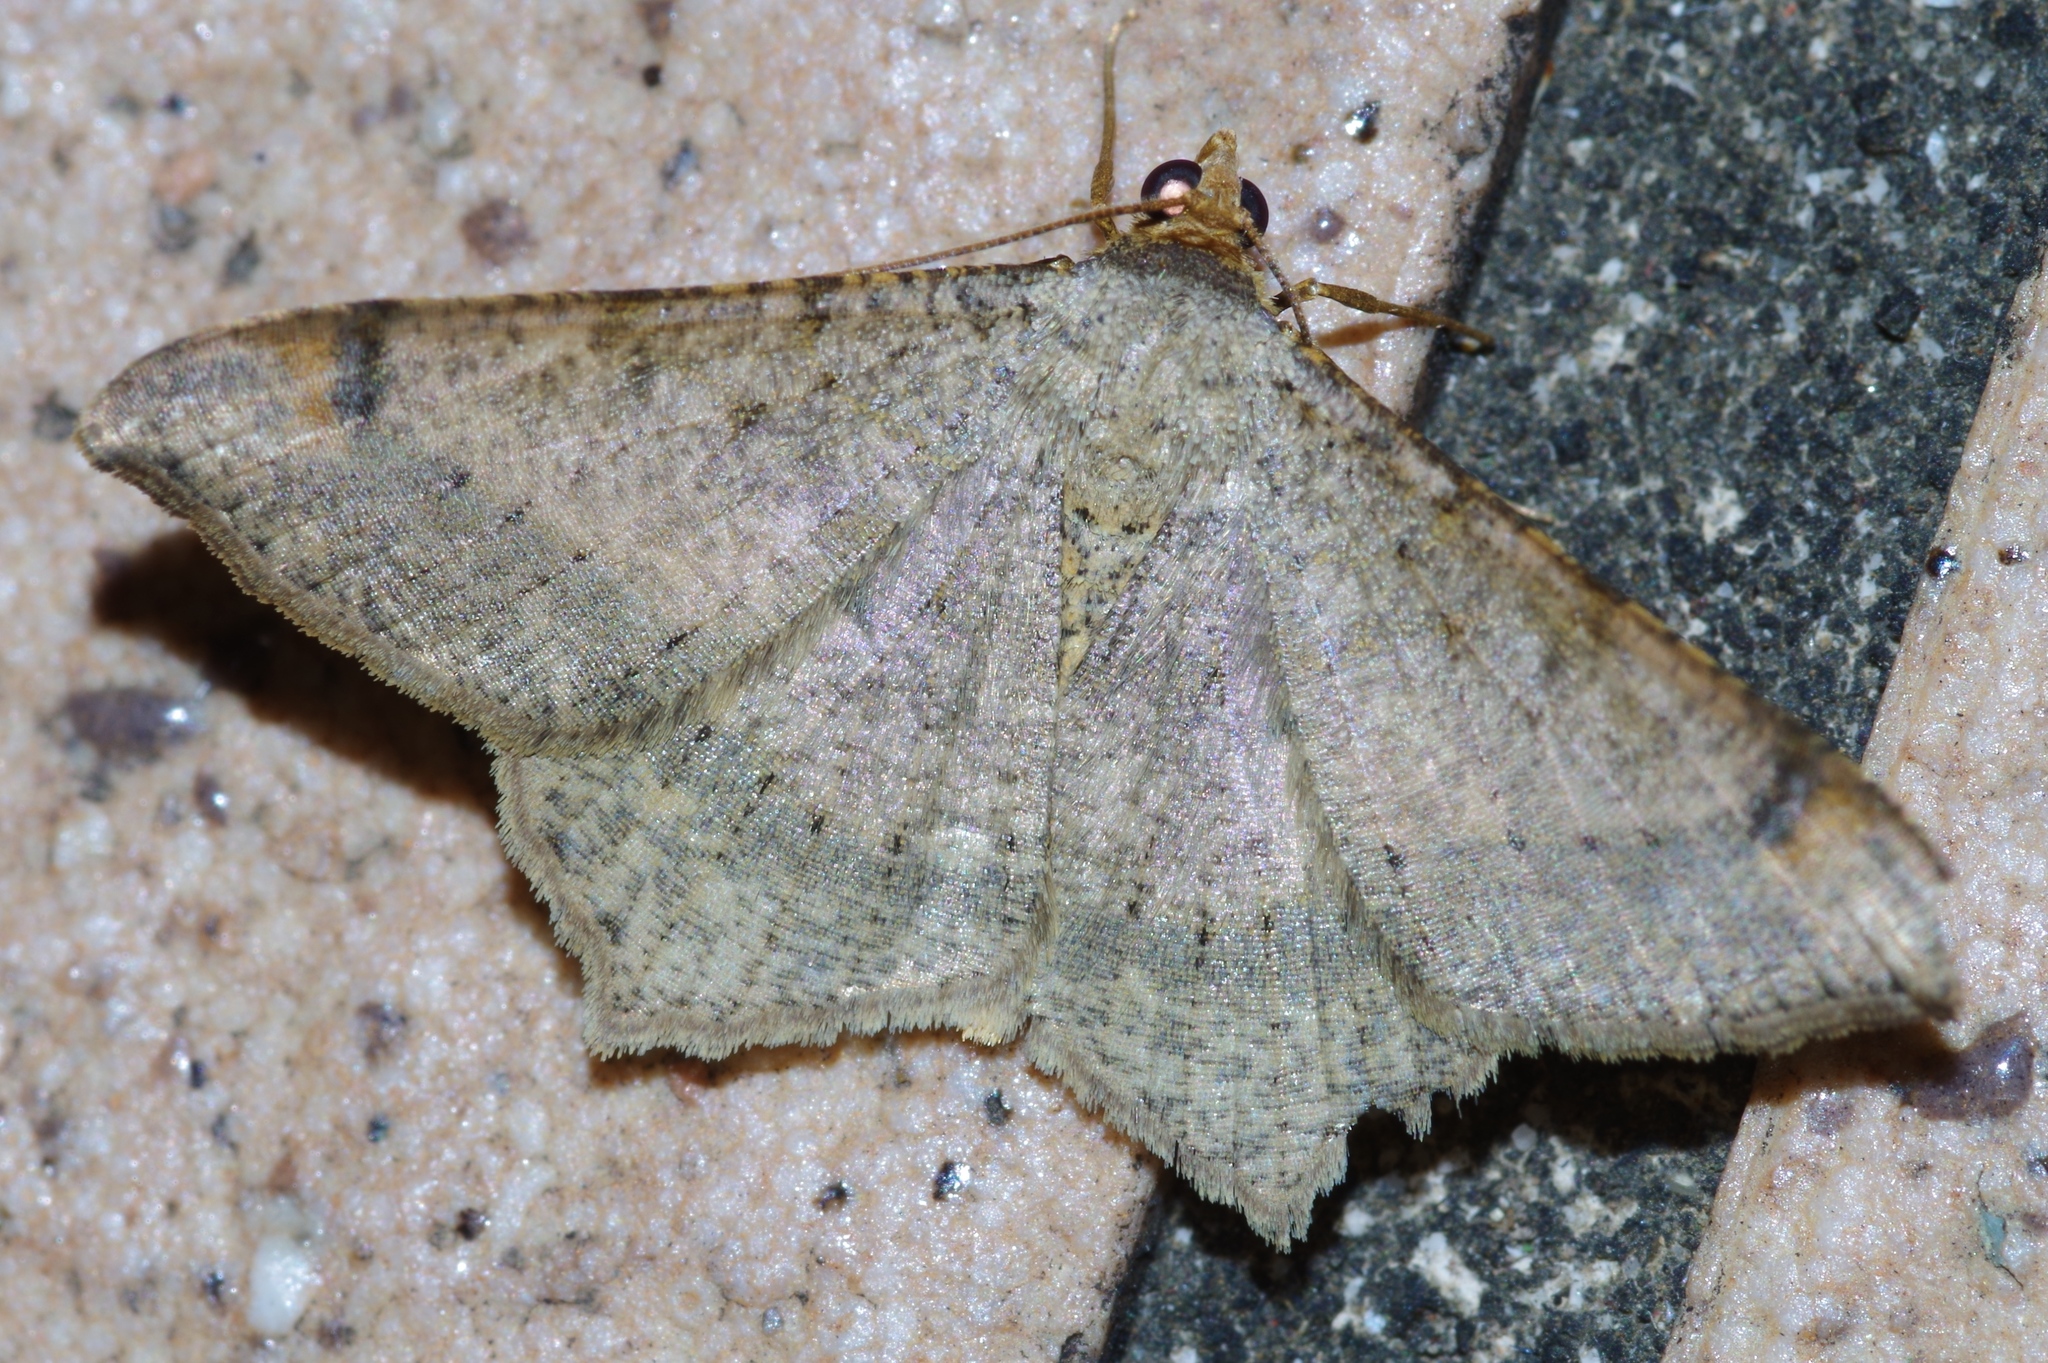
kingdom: Animalia
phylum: Arthropoda
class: Insecta
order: Lepidoptera
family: Geometridae
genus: Macaria
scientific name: Macaria abydata
